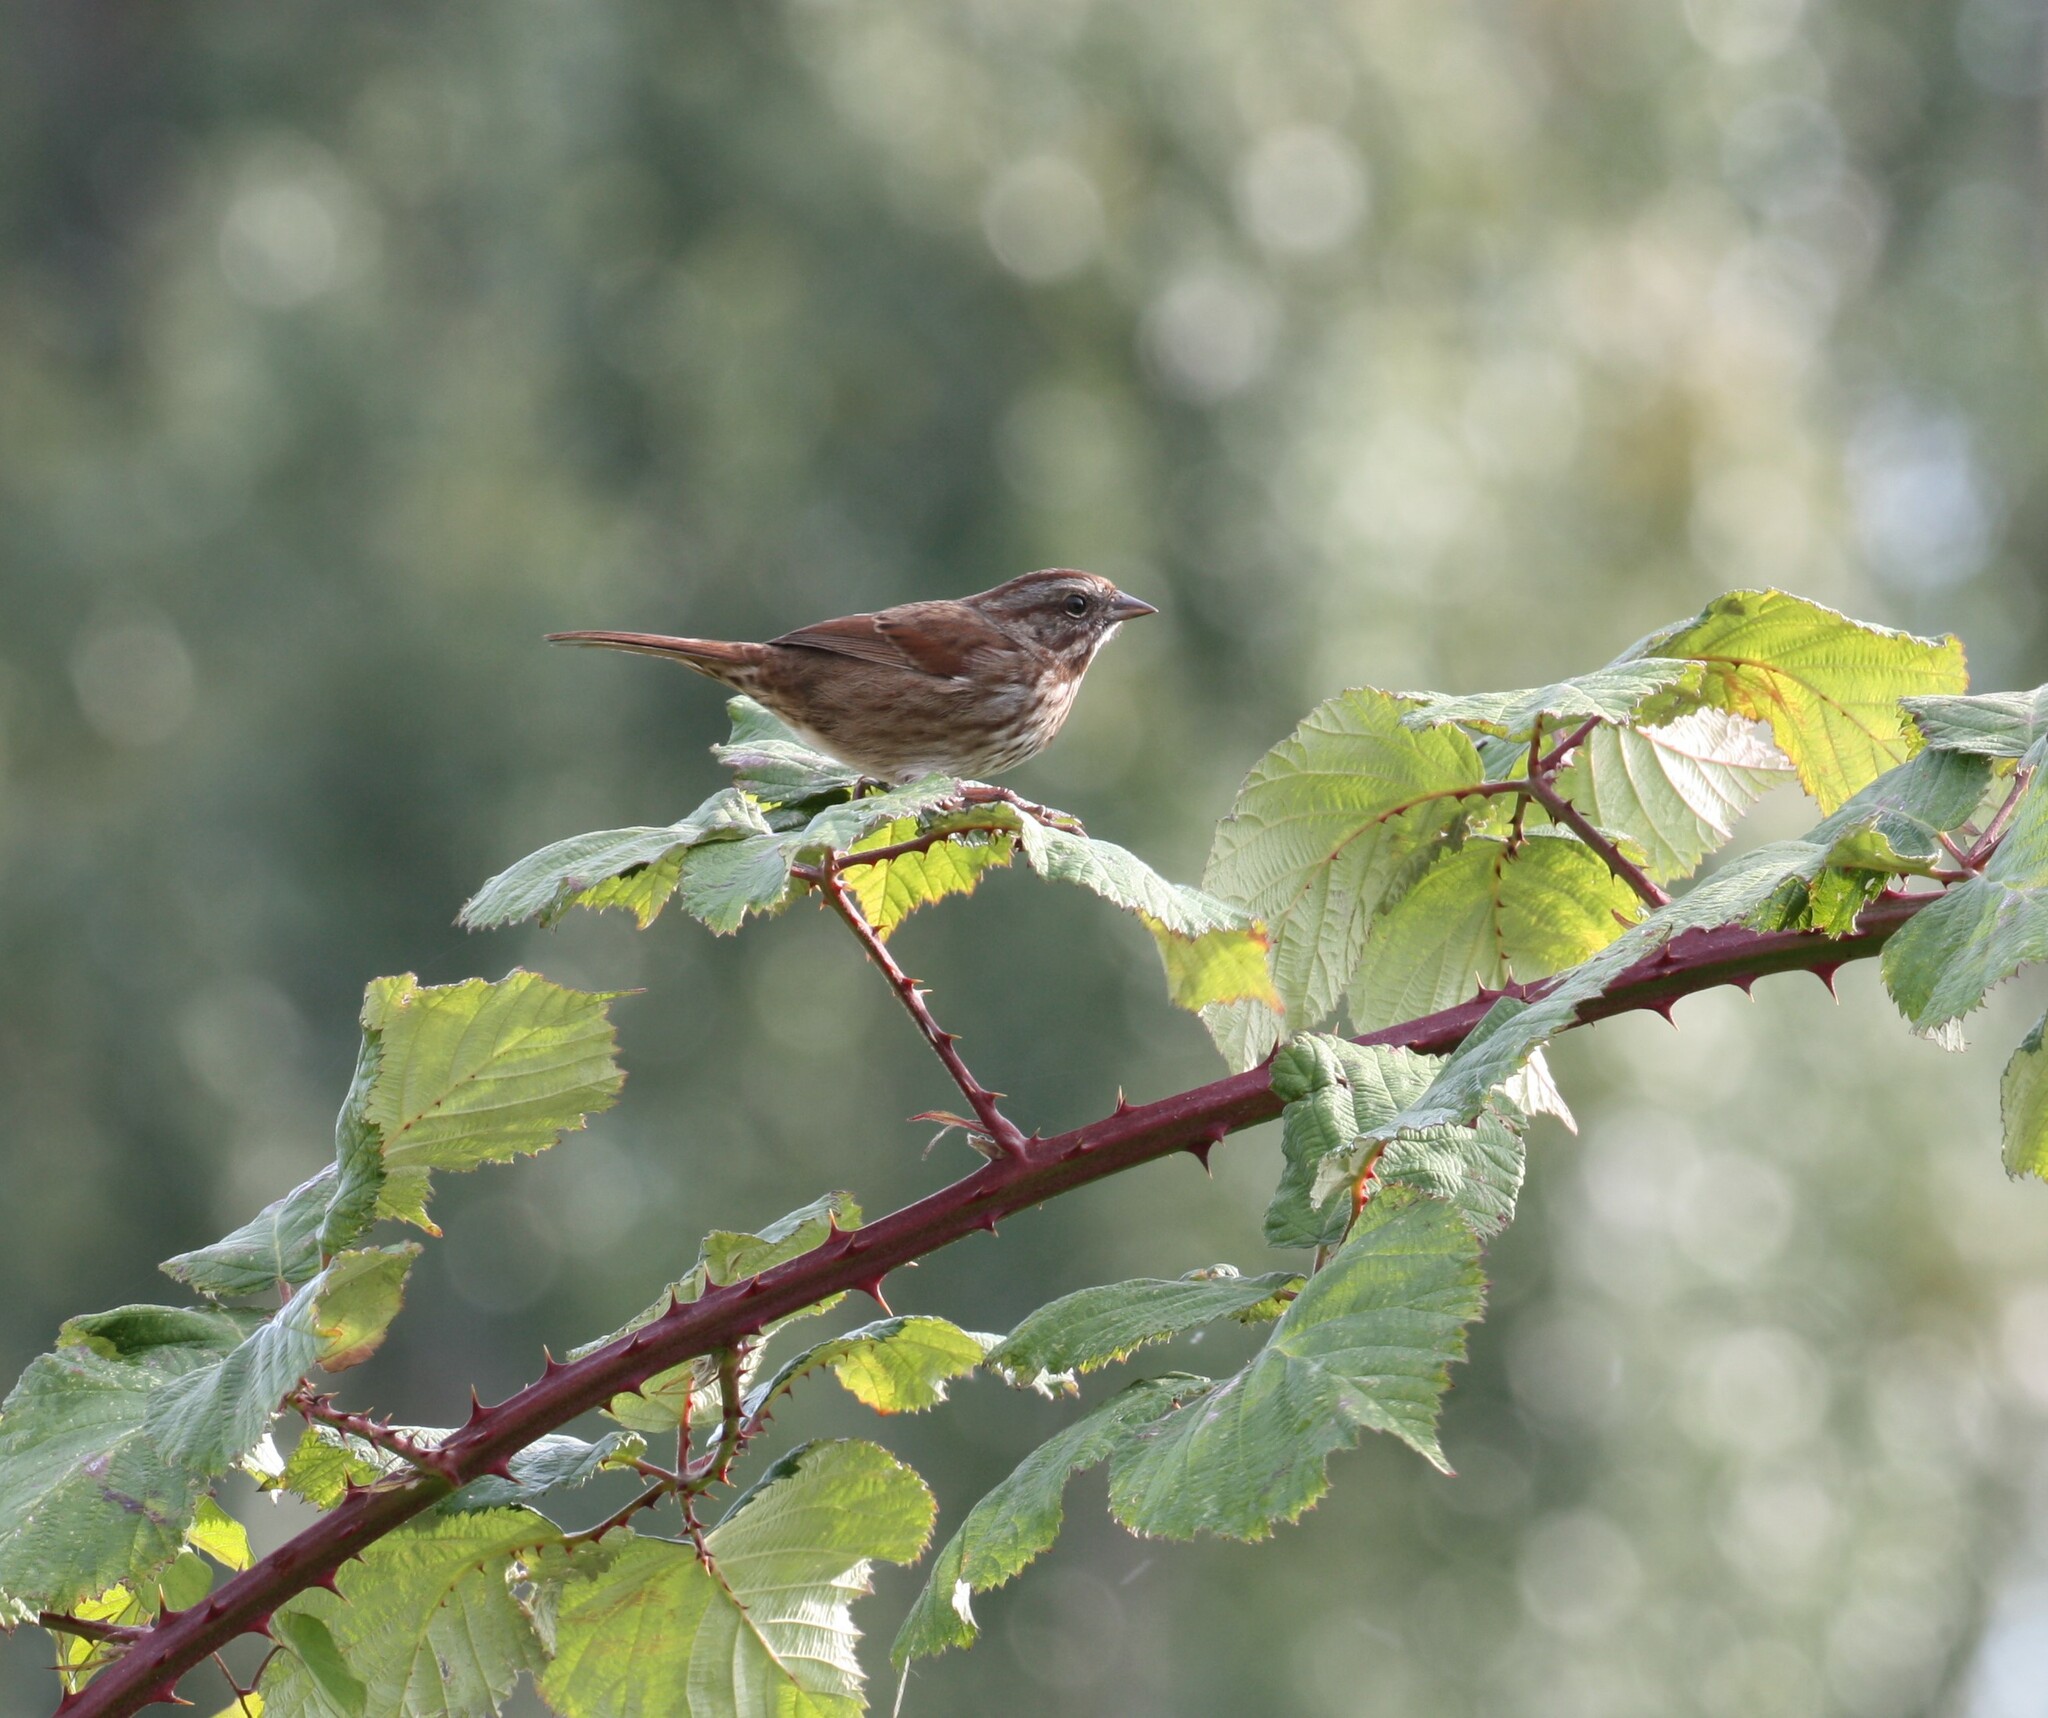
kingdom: Animalia
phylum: Chordata
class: Aves
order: Passeriformes
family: Passerellidae
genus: Melospiza
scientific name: Melospiza melodia
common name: Song sparrow
